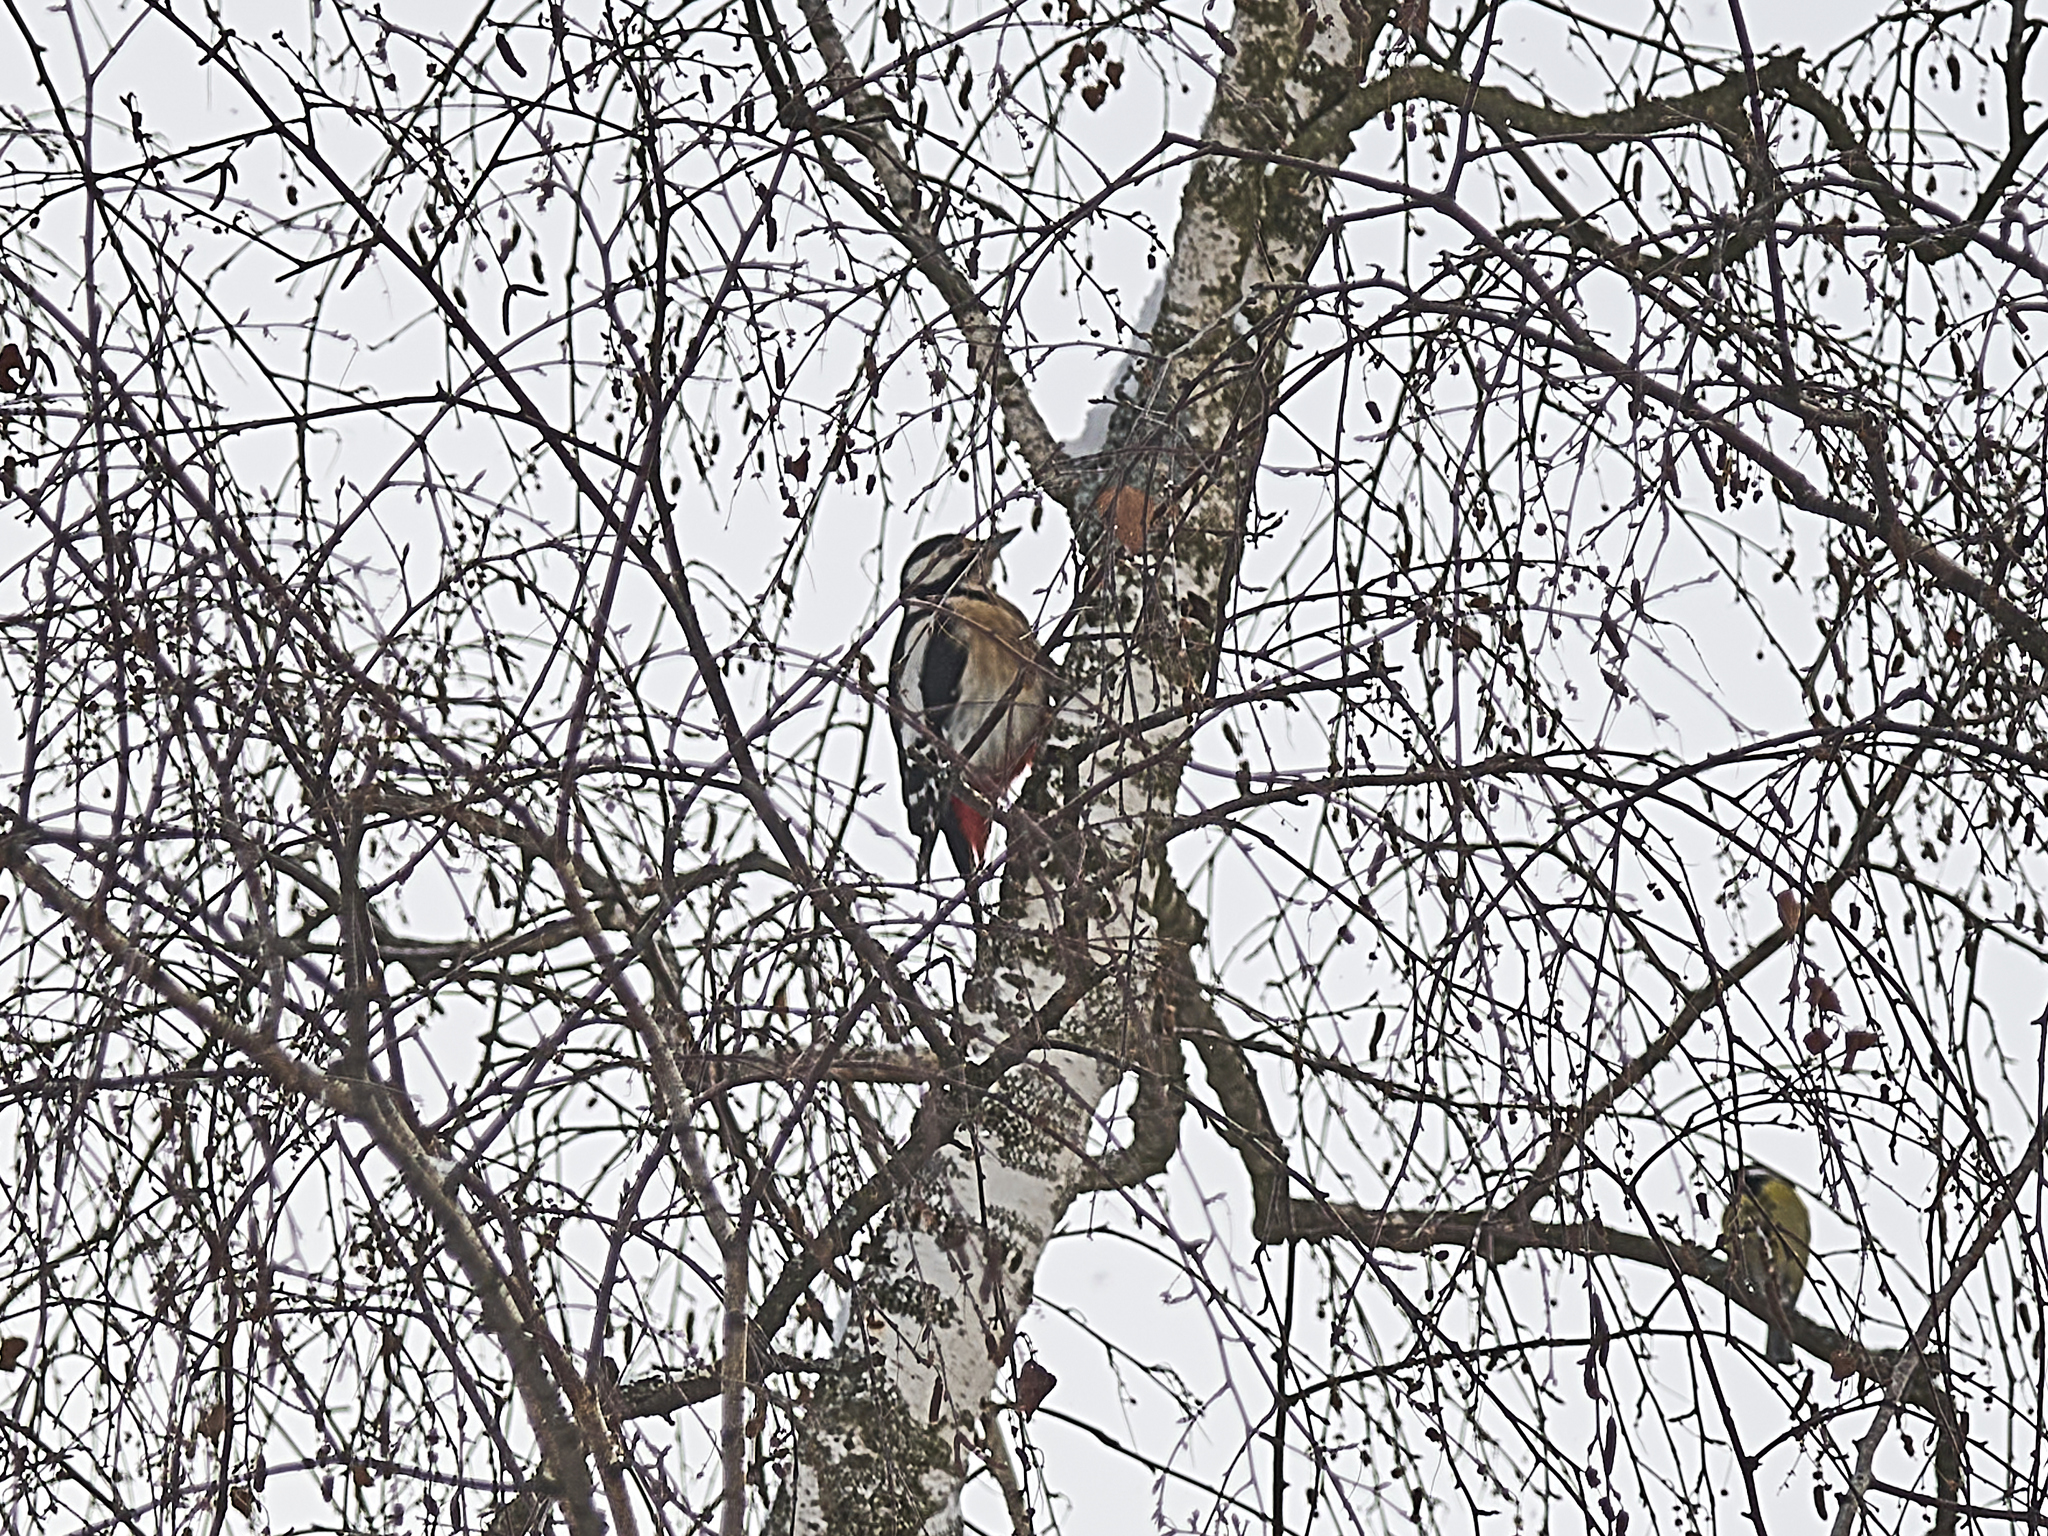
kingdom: Animalia
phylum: Chordata
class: Aves
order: Piciformes
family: Picidae
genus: Dendrocopos
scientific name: Dendrocopos major
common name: Great spotted woodpecker
